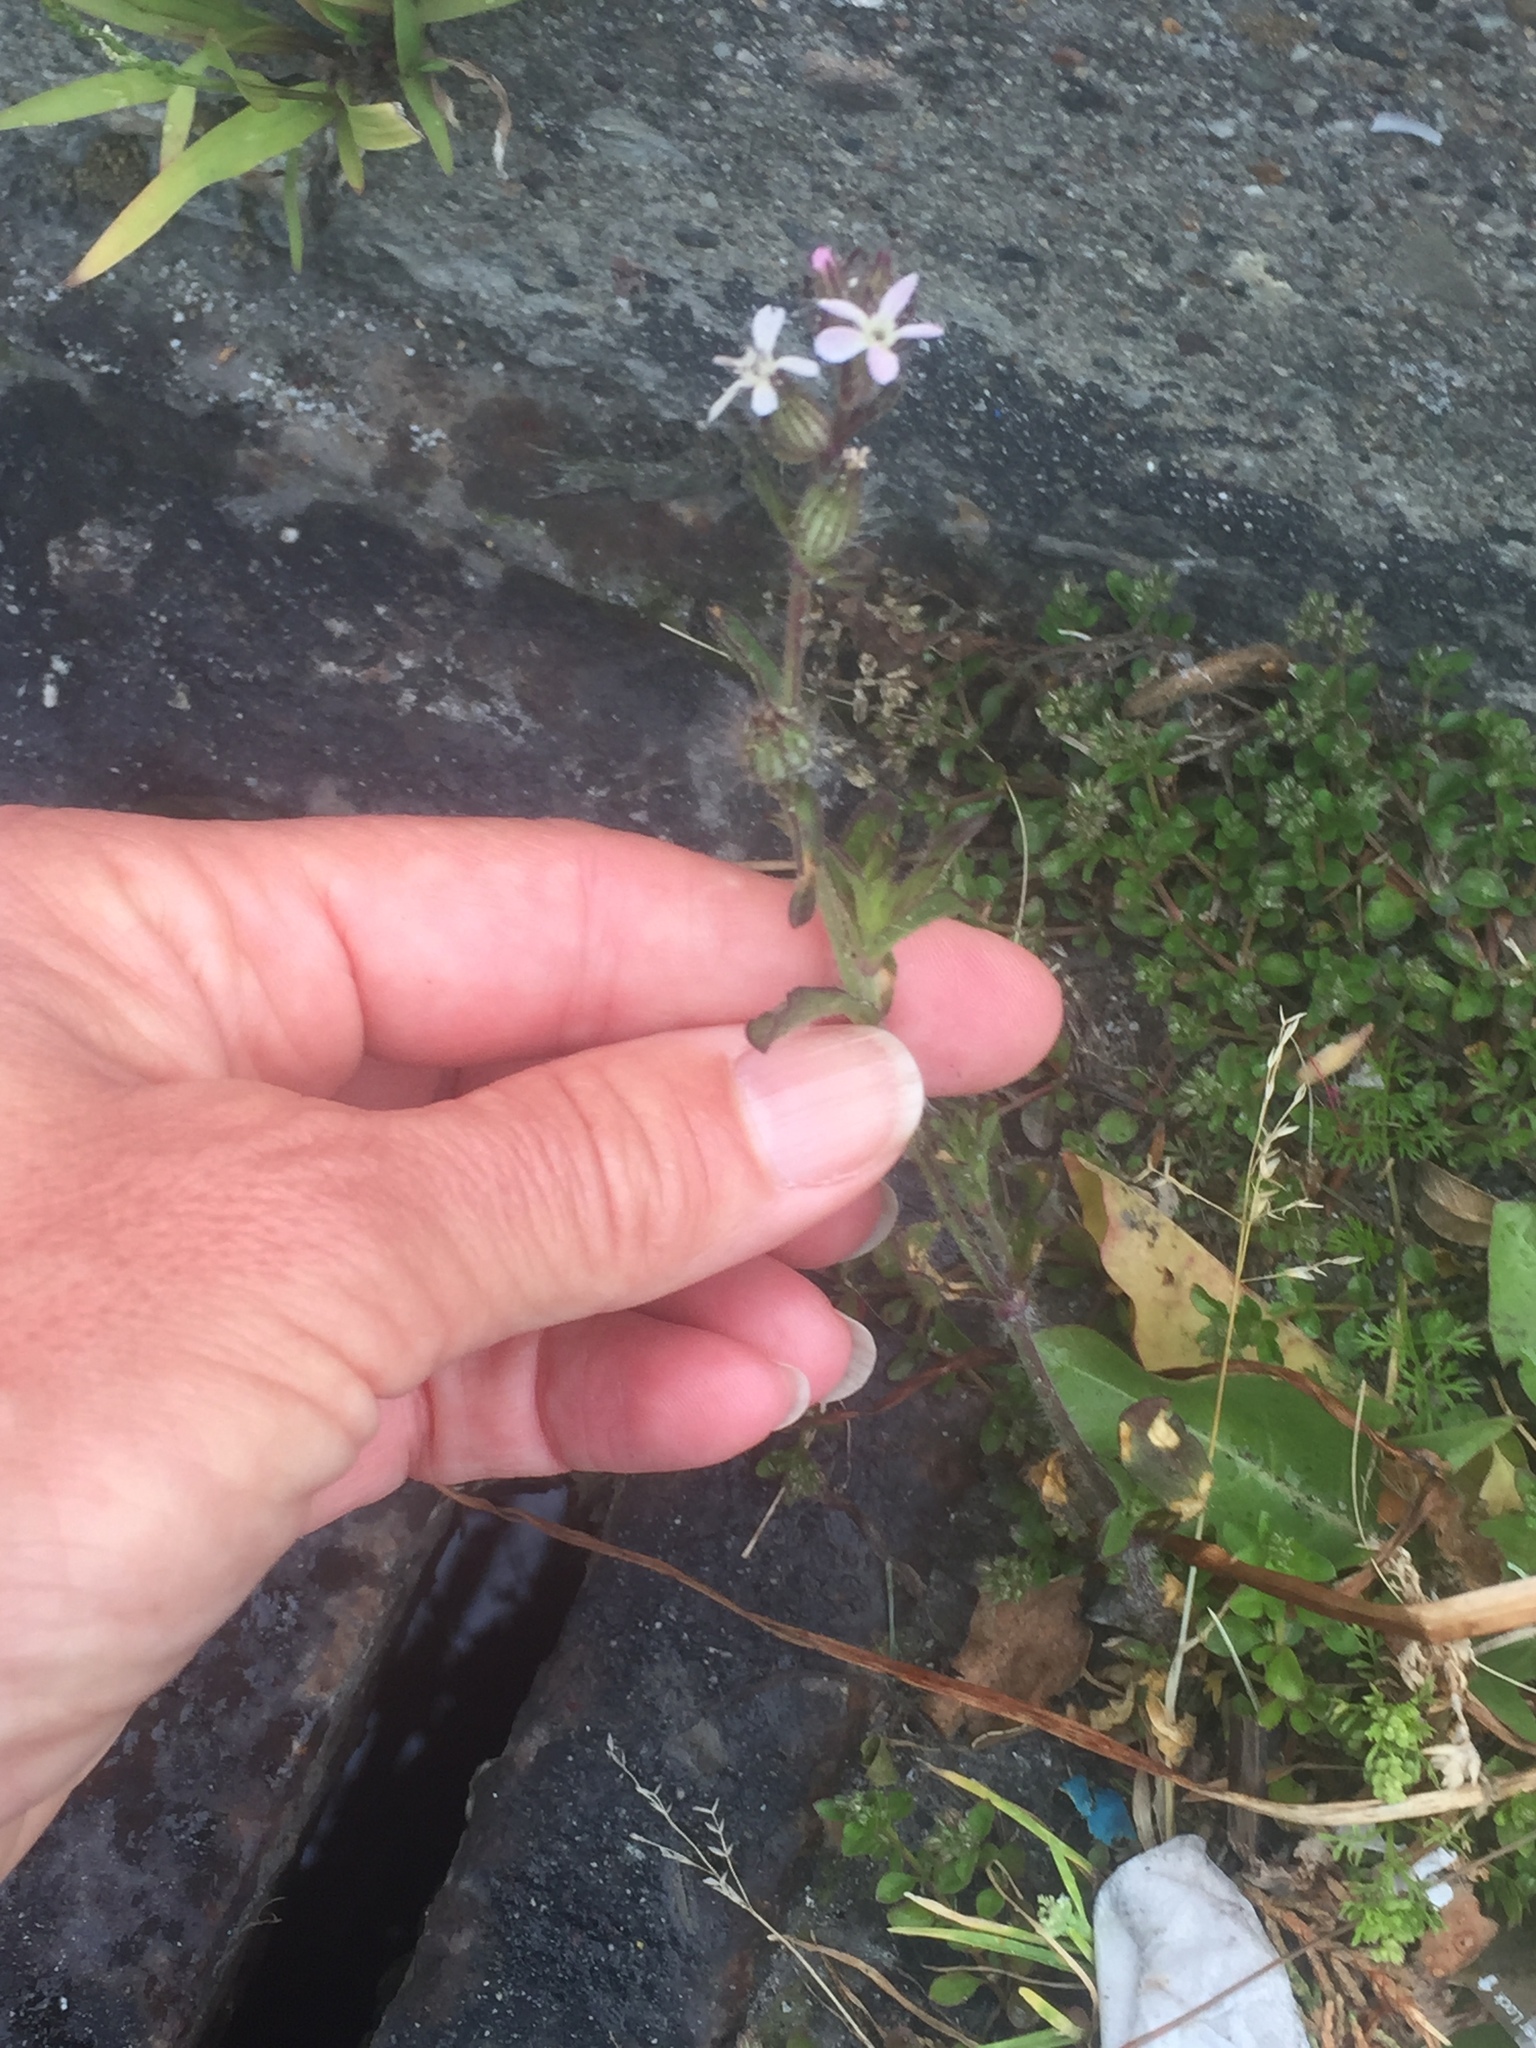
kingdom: Plantae
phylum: Tracheophyta
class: Magnoliopsida
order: Caryophyllales
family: Caryophyllaceae
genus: Silene
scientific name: Silene gallica
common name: Small-flowered catchfly
